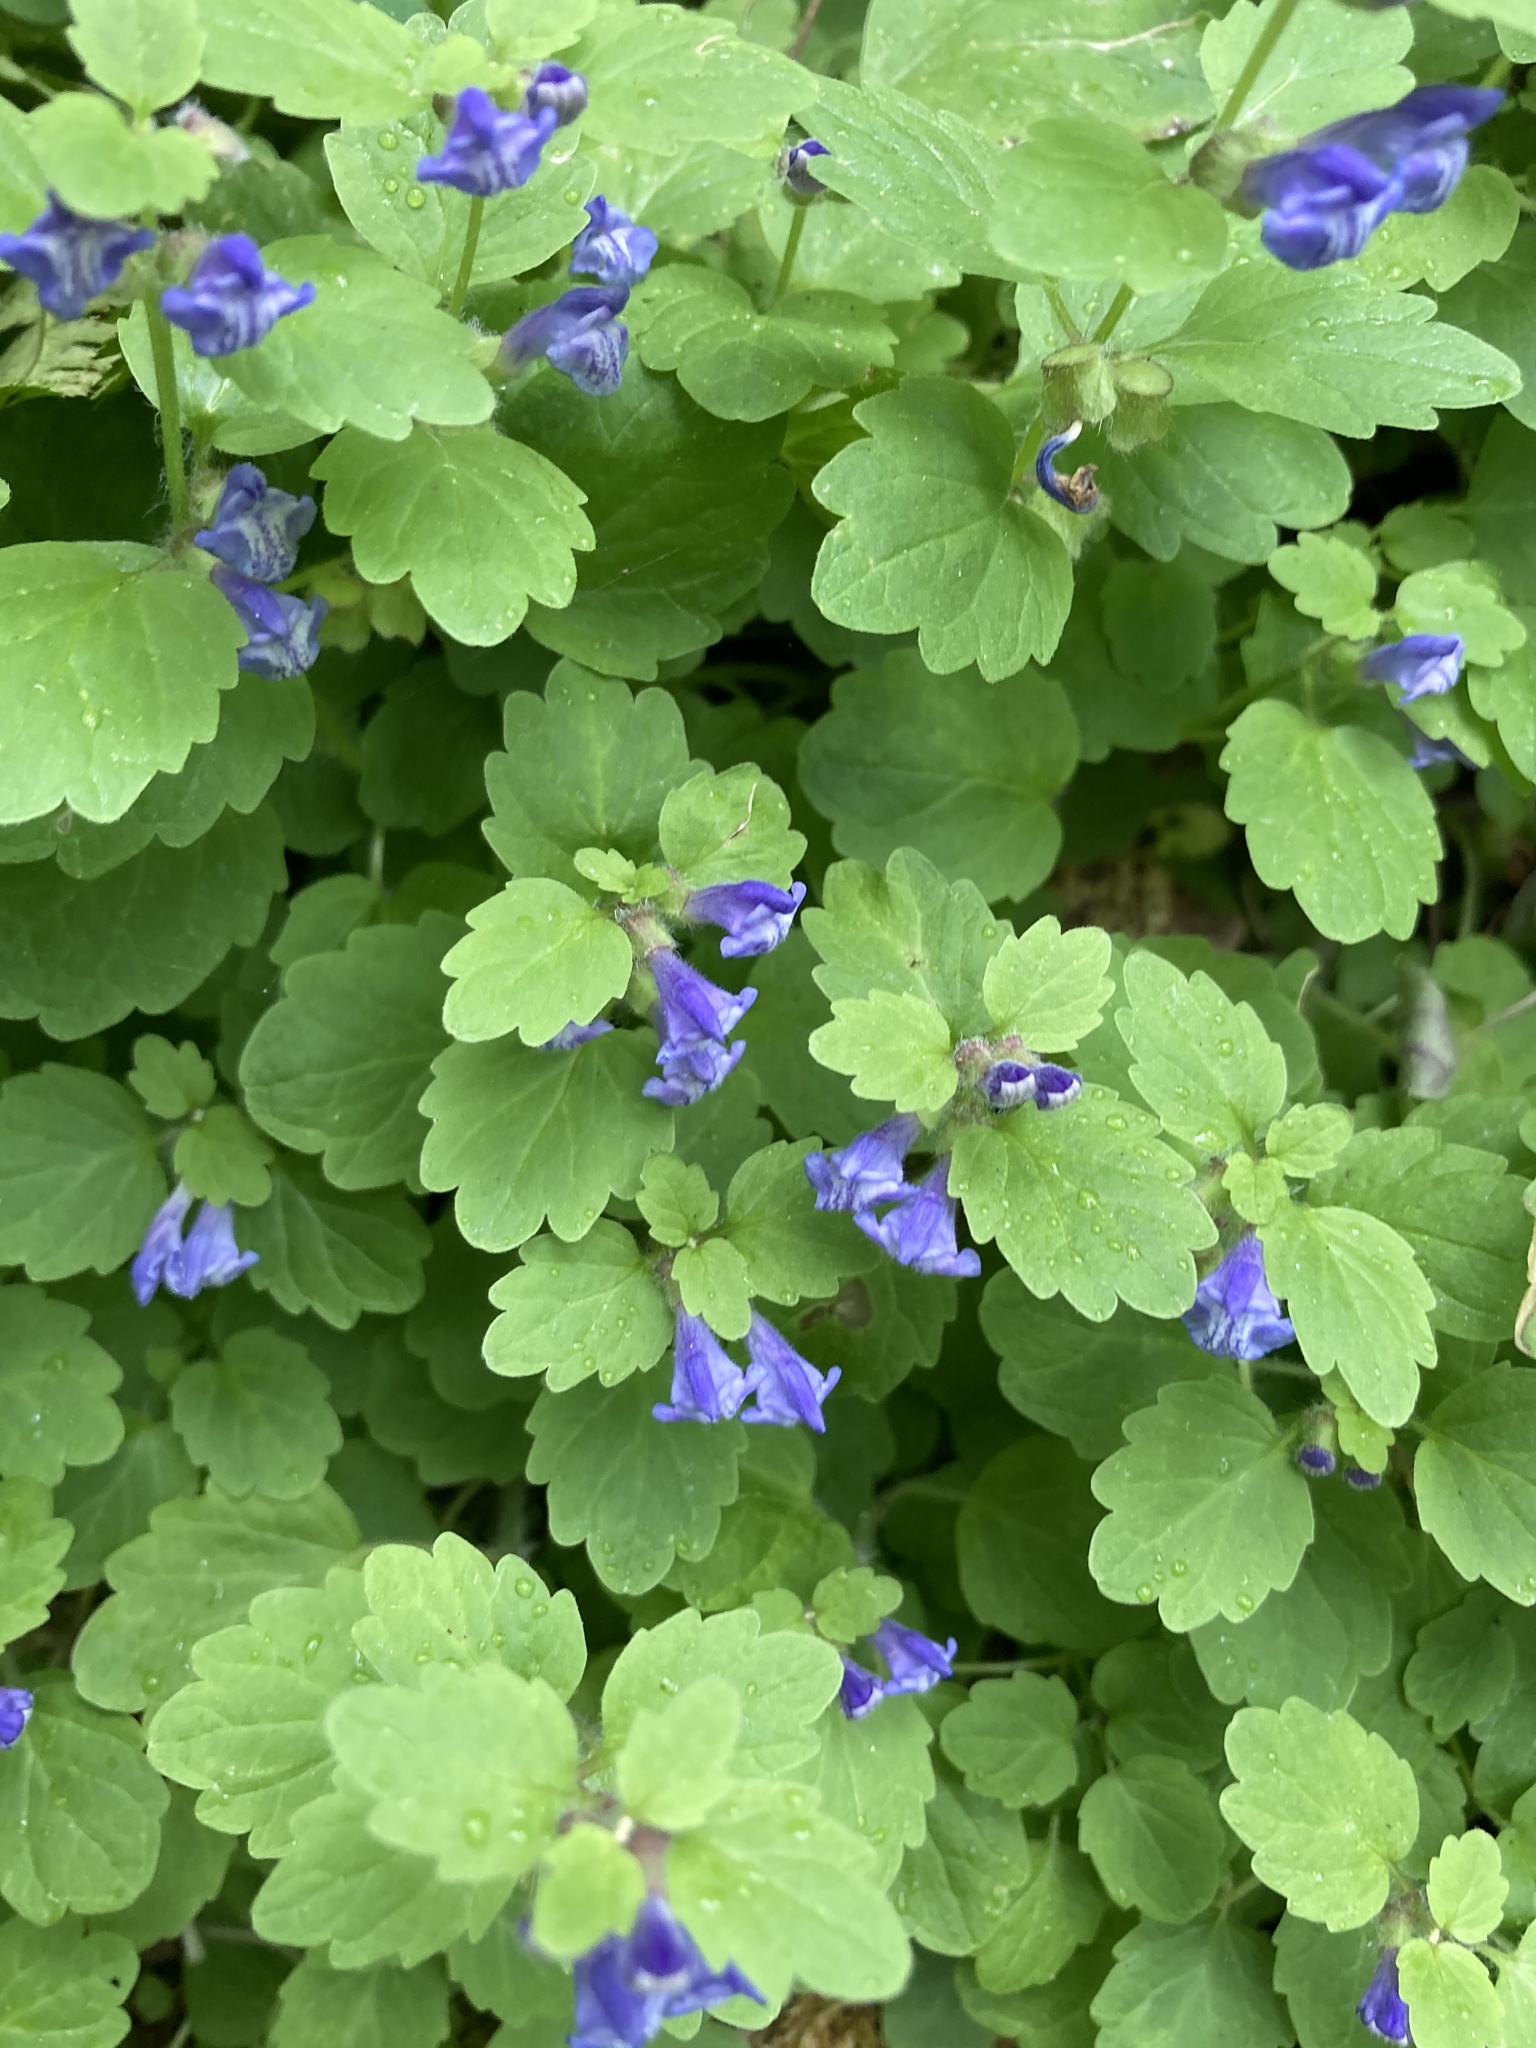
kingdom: Plantae
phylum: Tracheophyta
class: Magnoliopsida
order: Lamiales
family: Lamiaceae
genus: Scutellaria
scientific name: Scutellaria tuberosa
